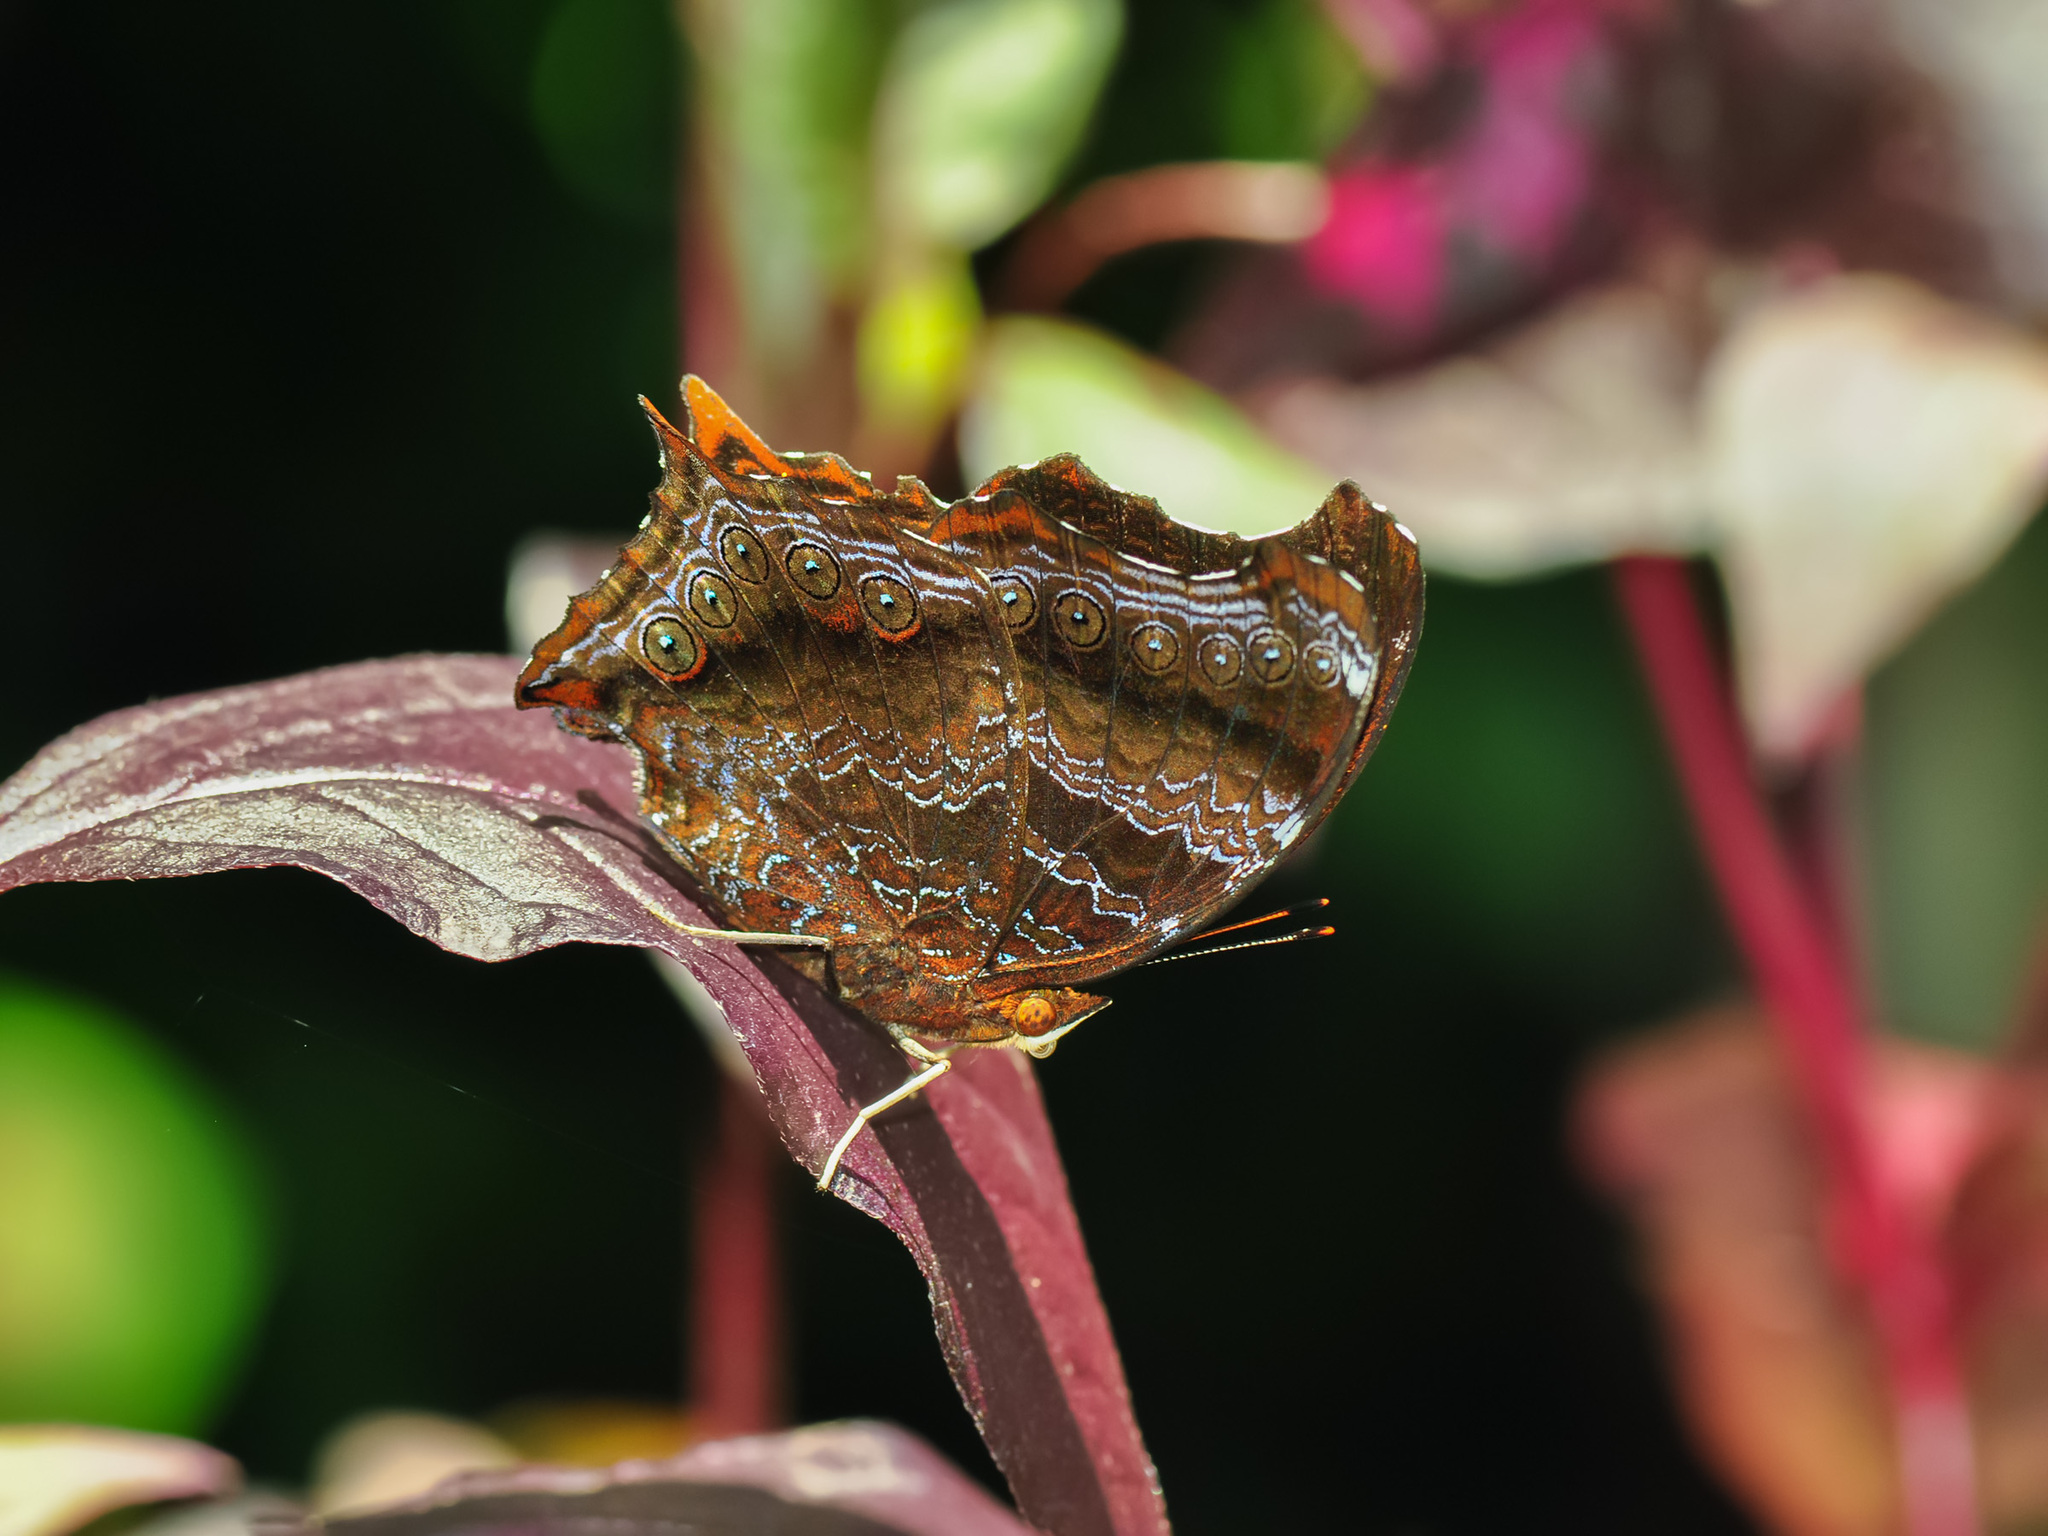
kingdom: Animalia
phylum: Arthropoda
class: Insecta
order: Lepidoptera
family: Nymphalidae
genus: Rhinopalpa
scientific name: Rhinopalpa polynice
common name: Wizard
